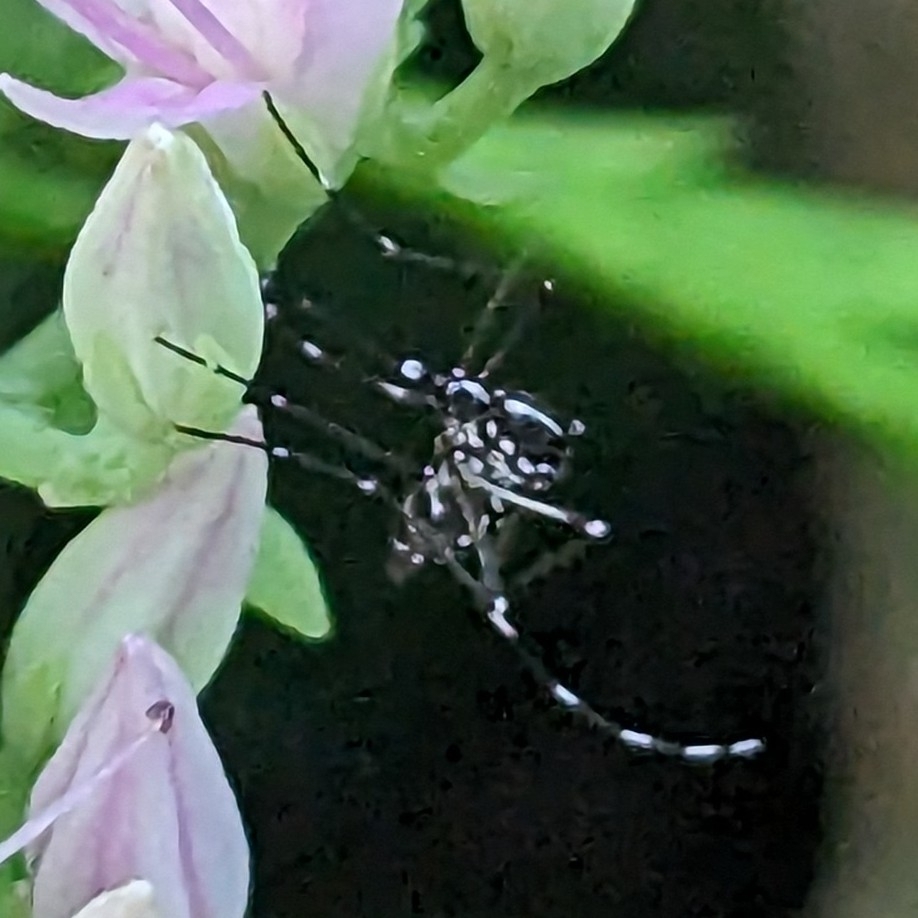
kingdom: Animalia
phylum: Arthropoda
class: Insecta
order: Diptera
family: Culicidae
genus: Aedes
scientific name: Aedes albopictus
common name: Tiger mosquito
